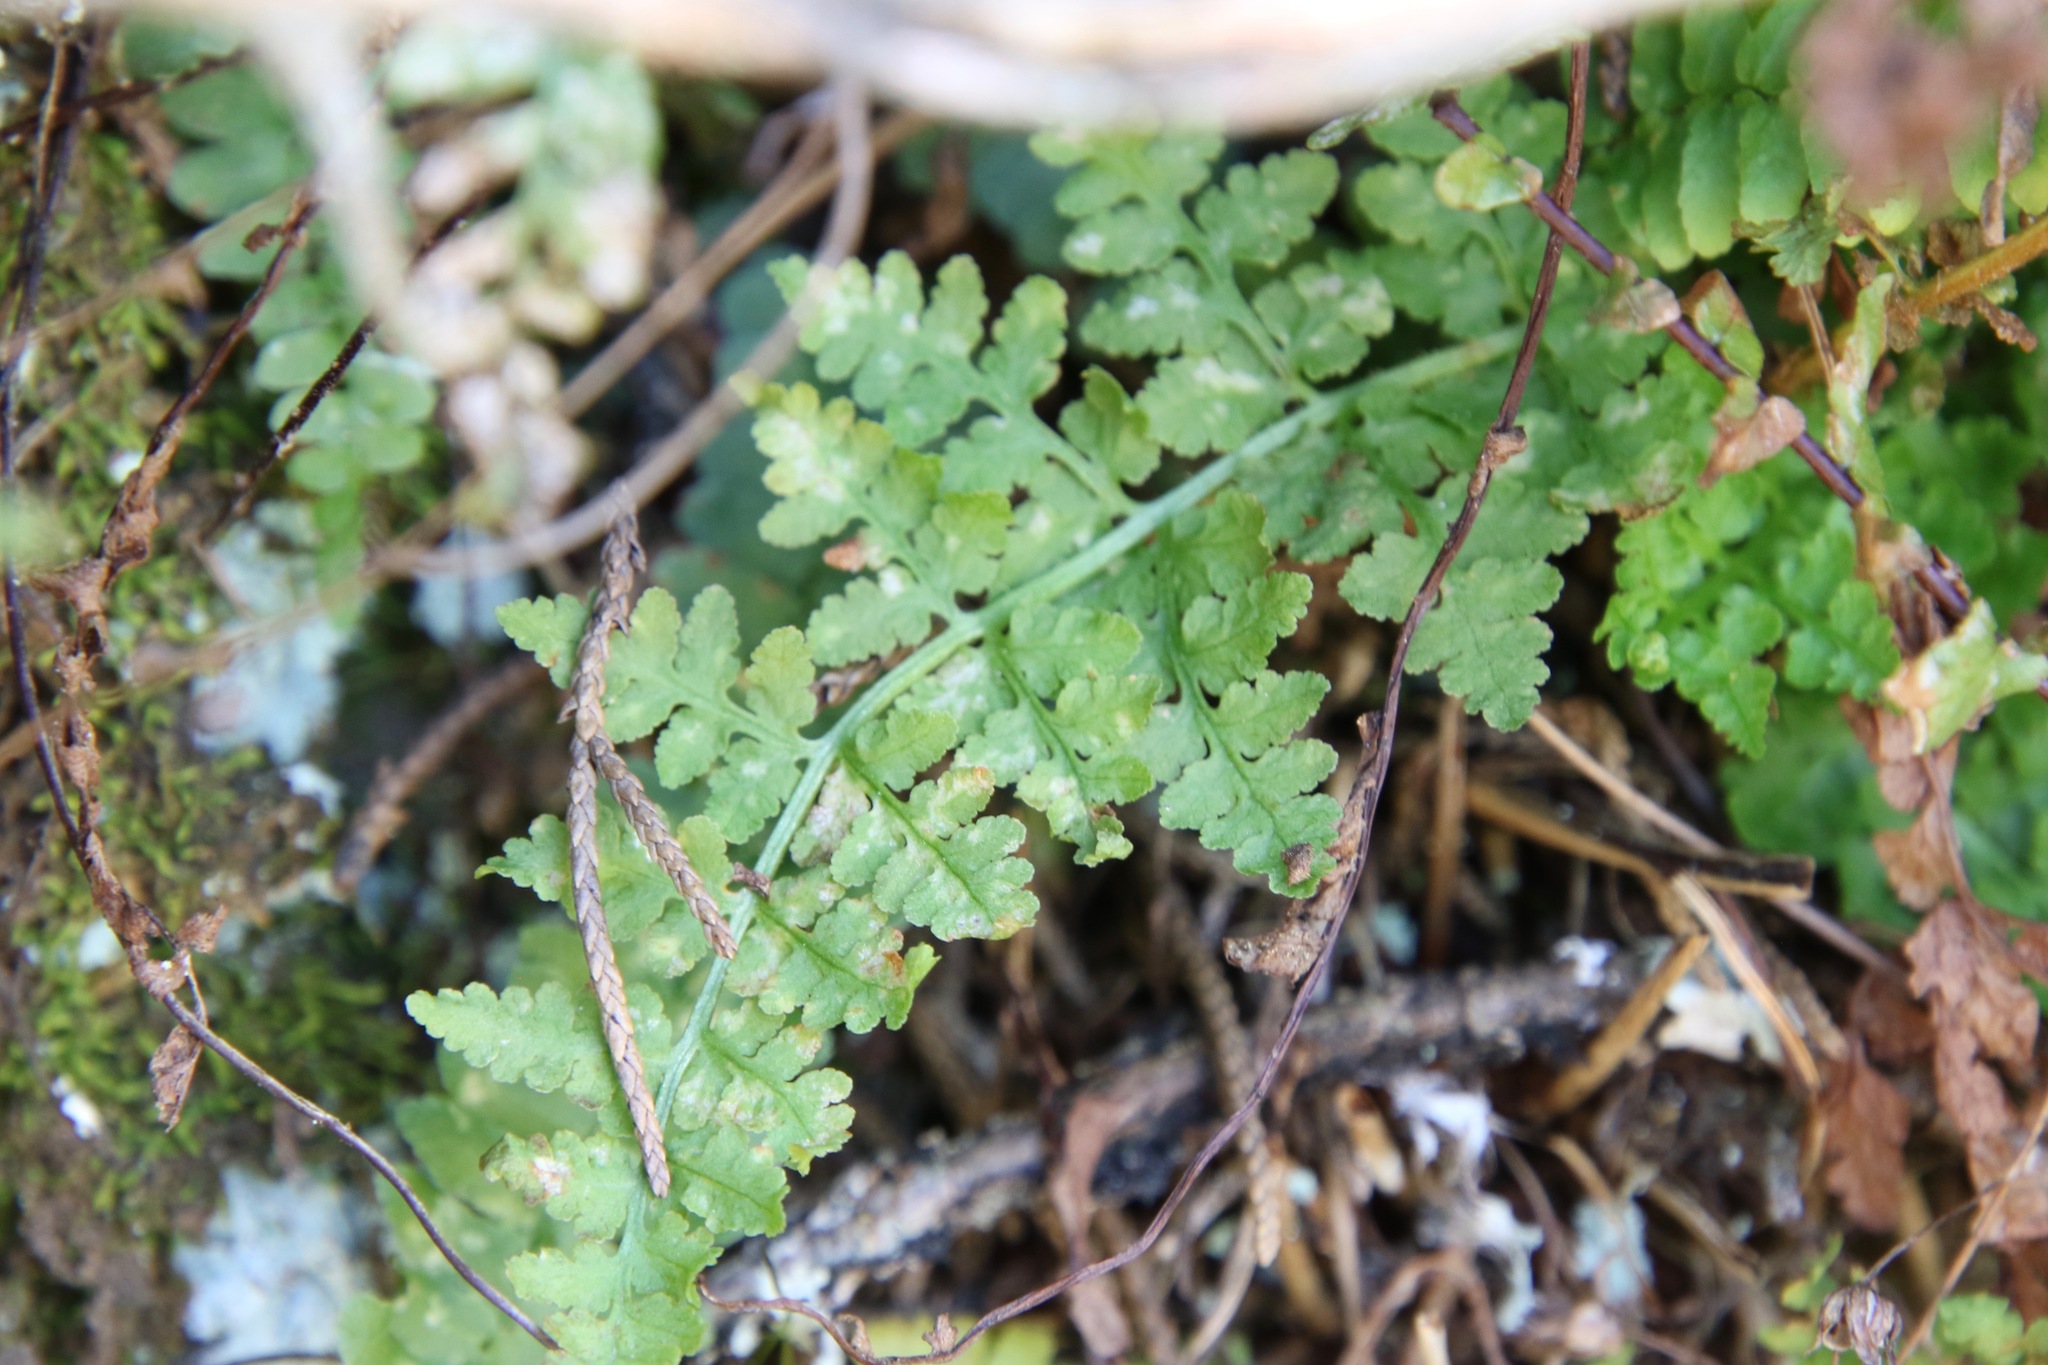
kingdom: Plantae
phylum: Tracheophyta
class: Polypodiopsida
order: Polypodiales
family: Woodsiaceae
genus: Physematium
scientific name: Physematium obtusum
